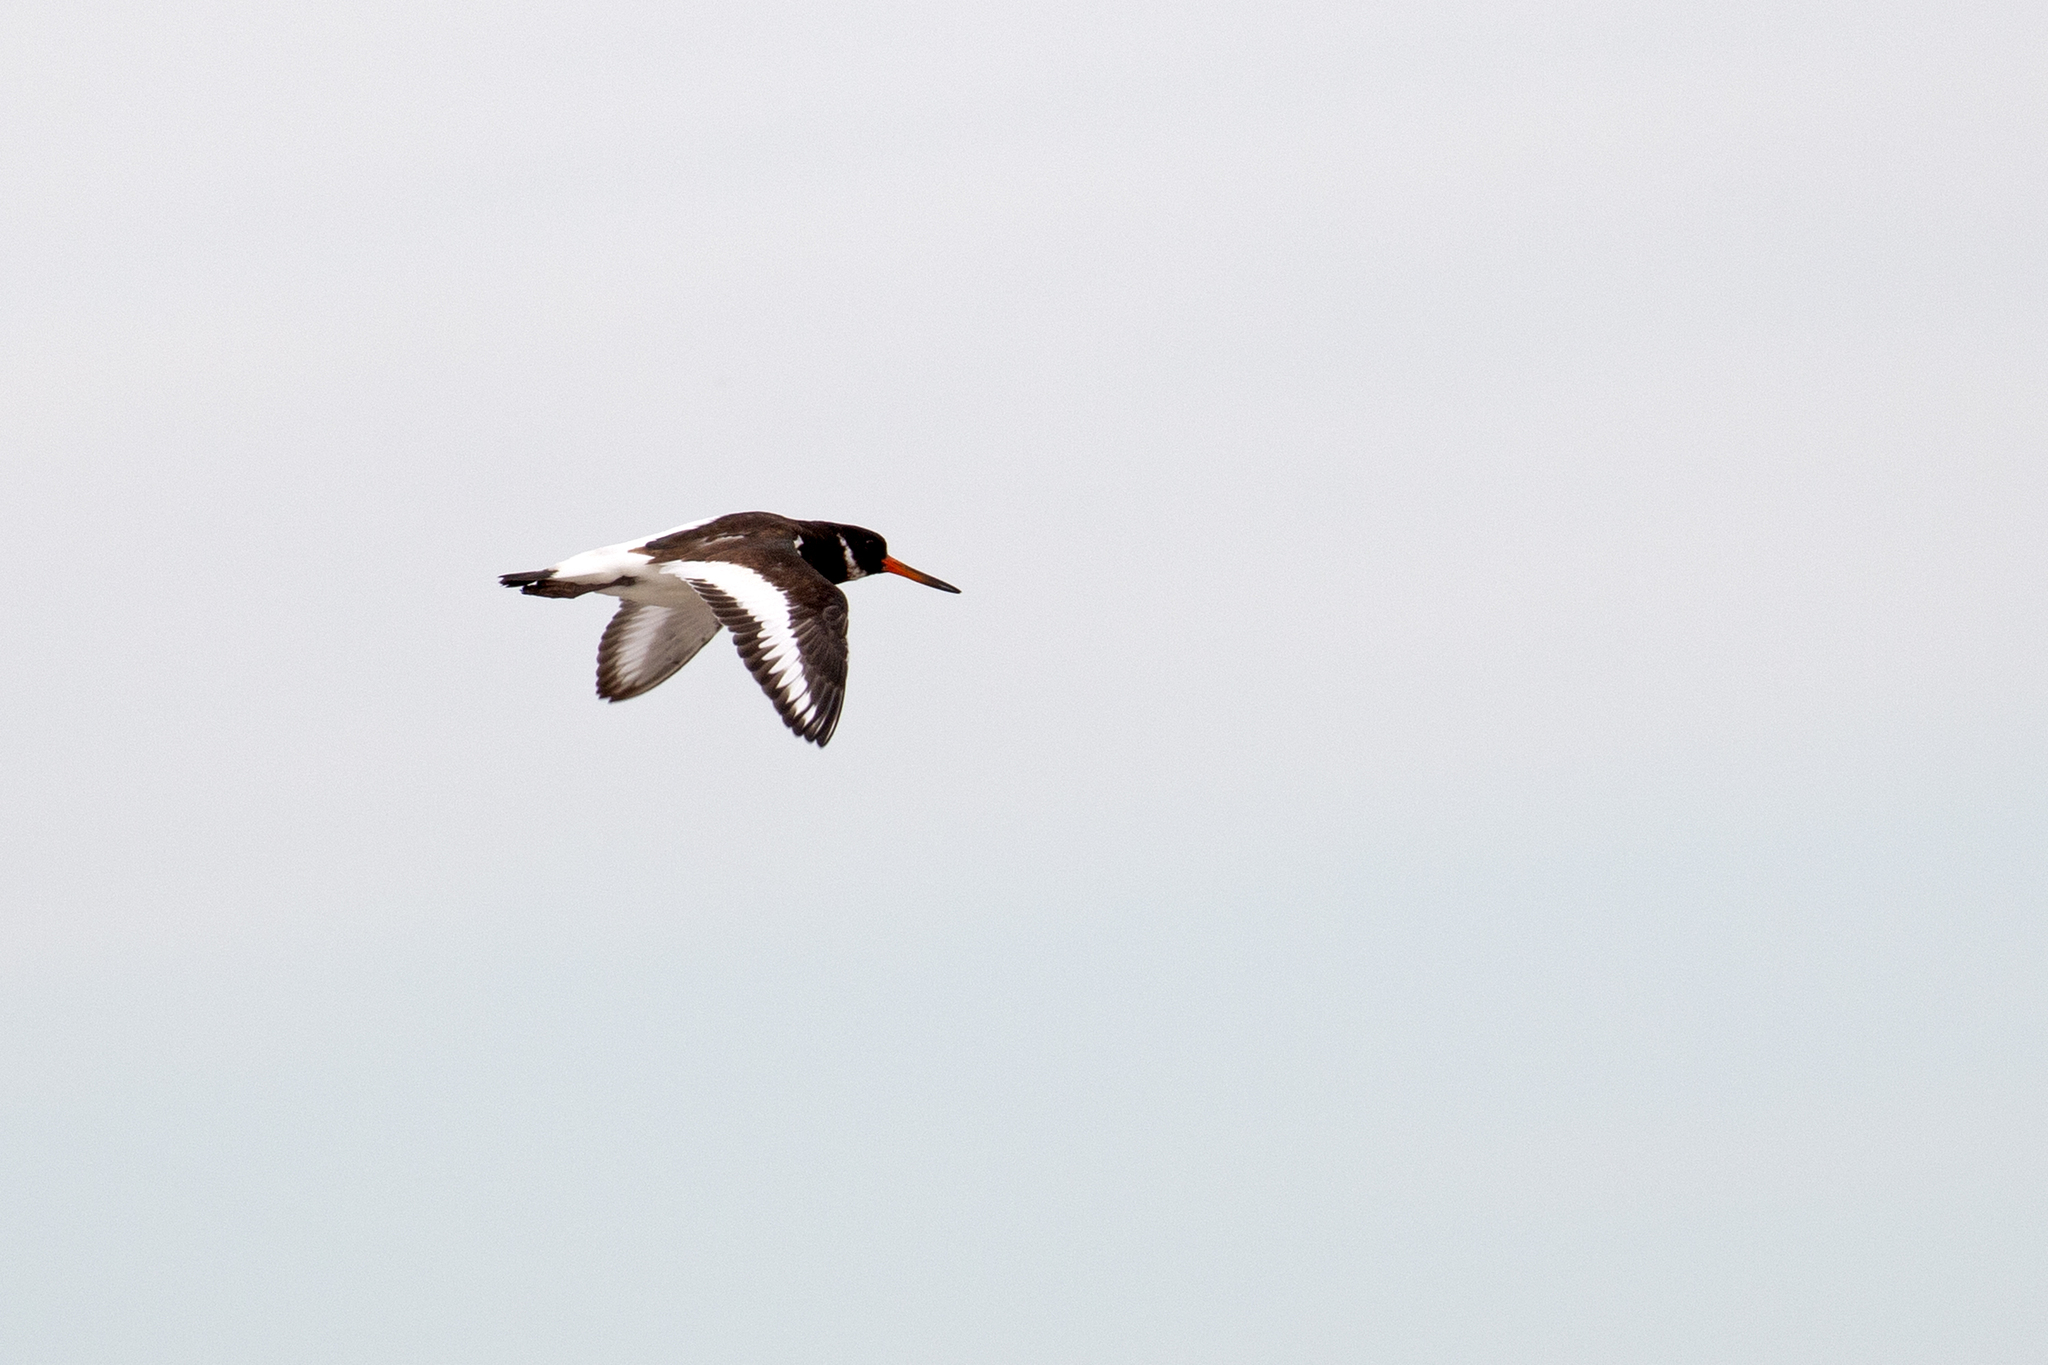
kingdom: Animalia
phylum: Chordata
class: Aves
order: Charadriiformes
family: Haematopodidae
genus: Haematopus
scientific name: Haematopus ostralegus
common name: Eurasian oystercatcher
